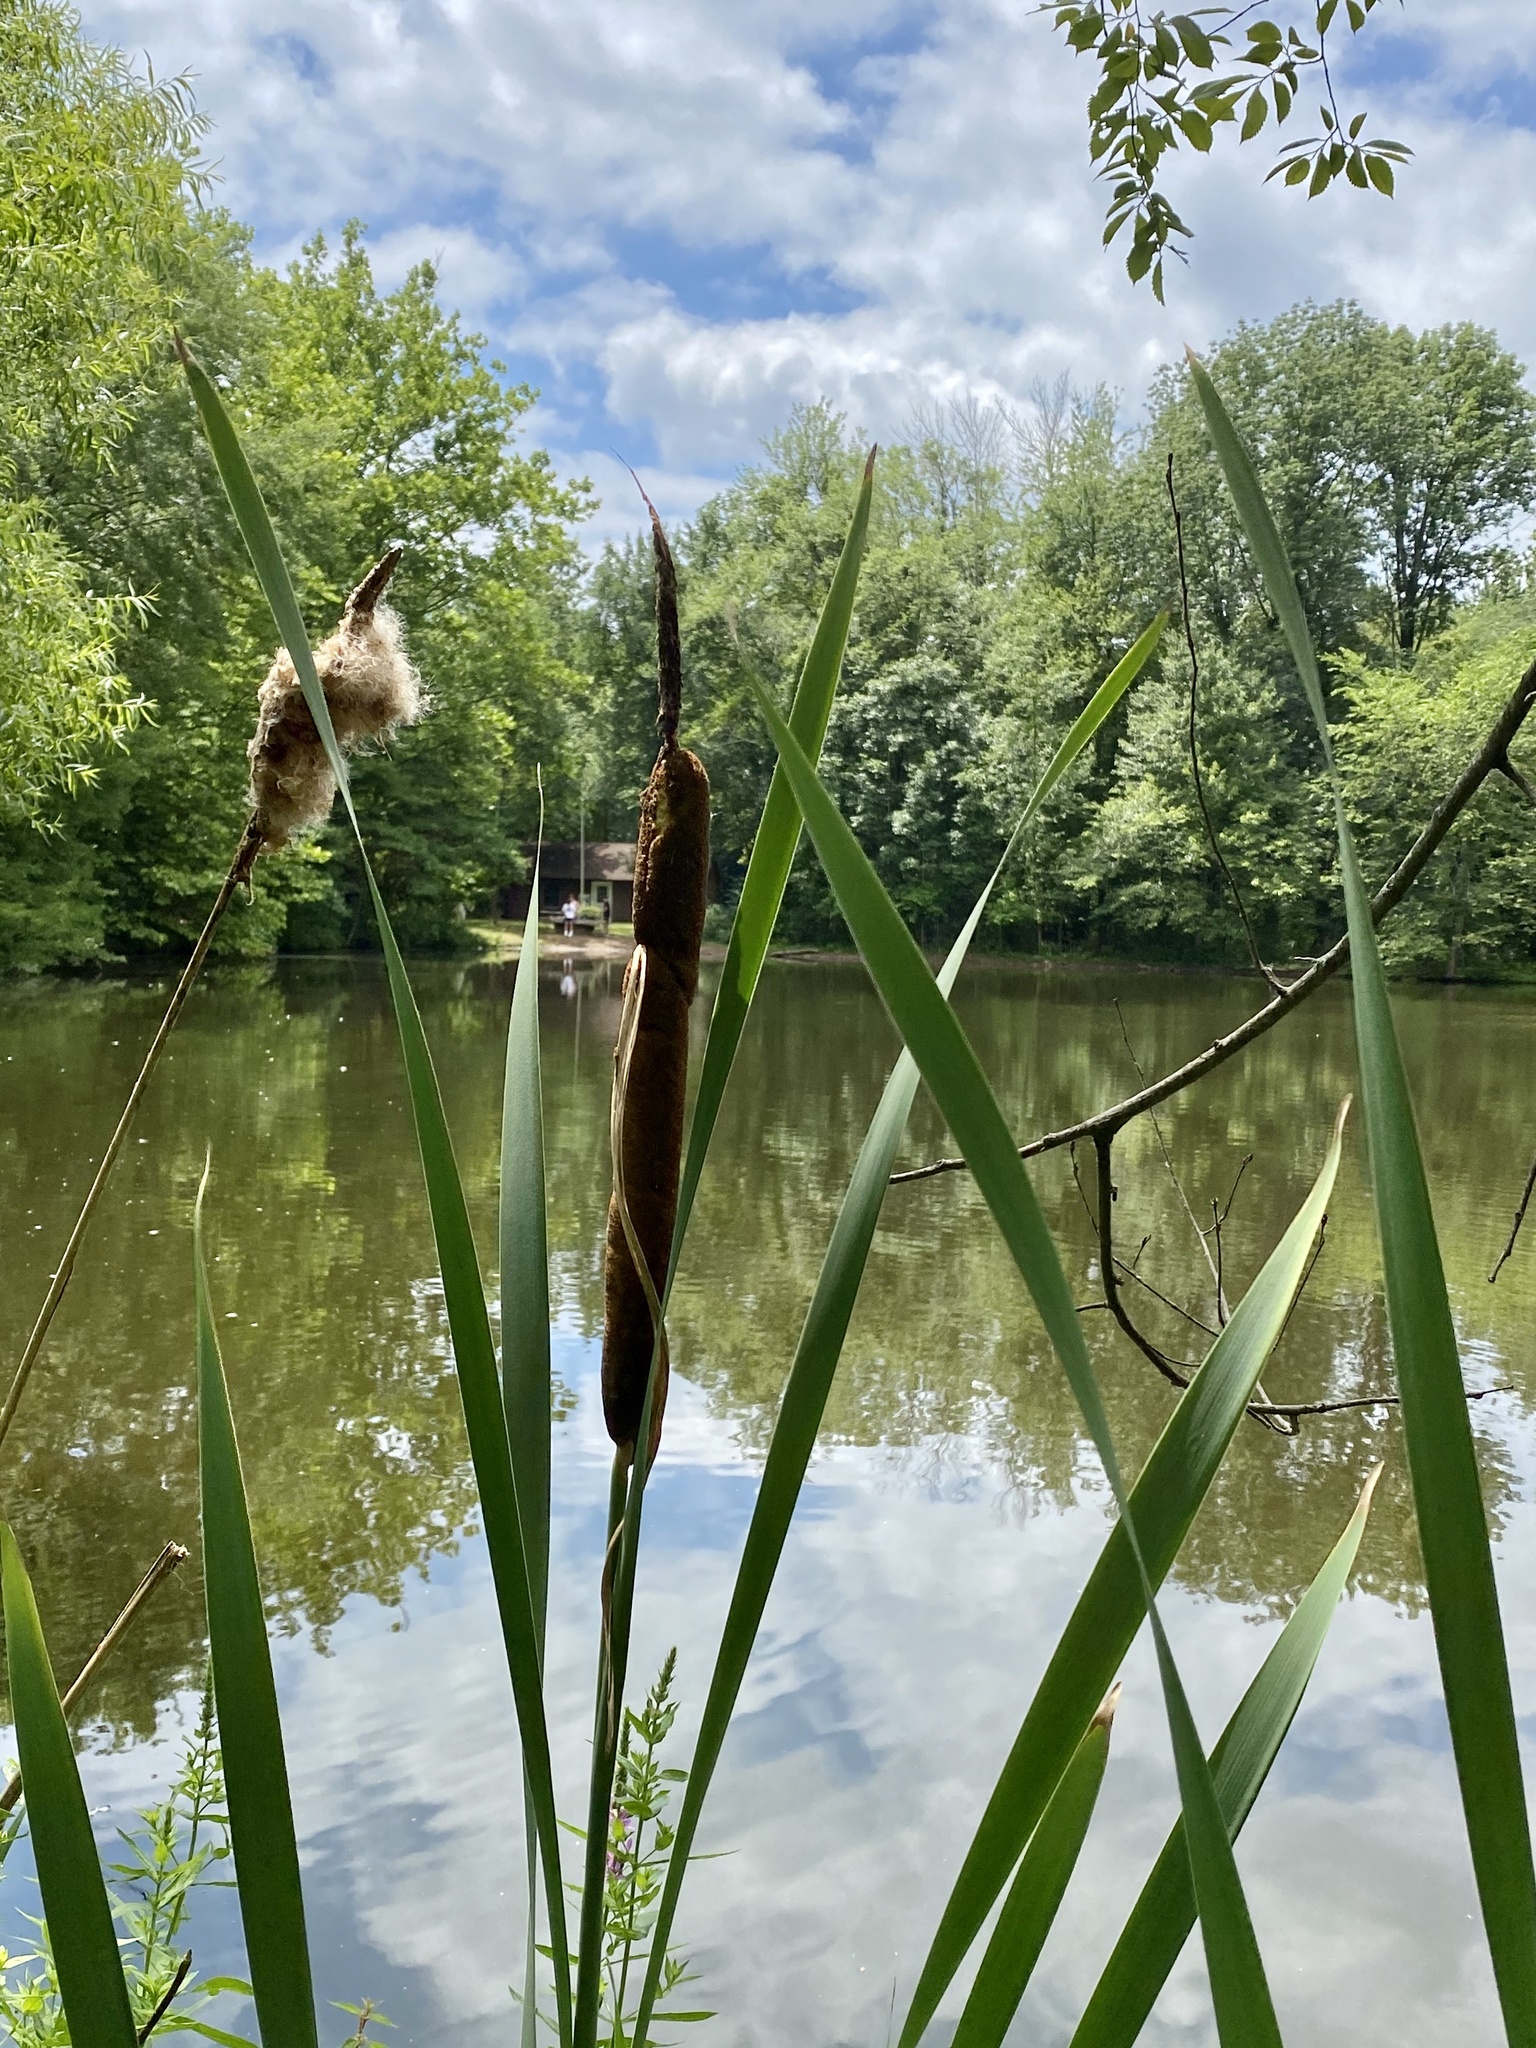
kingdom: Plantae
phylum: Tracheophyta
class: Liliopsida
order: Poales
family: Typhaceae
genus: Typha
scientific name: Typha latifolia
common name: Broadleaf cattail
